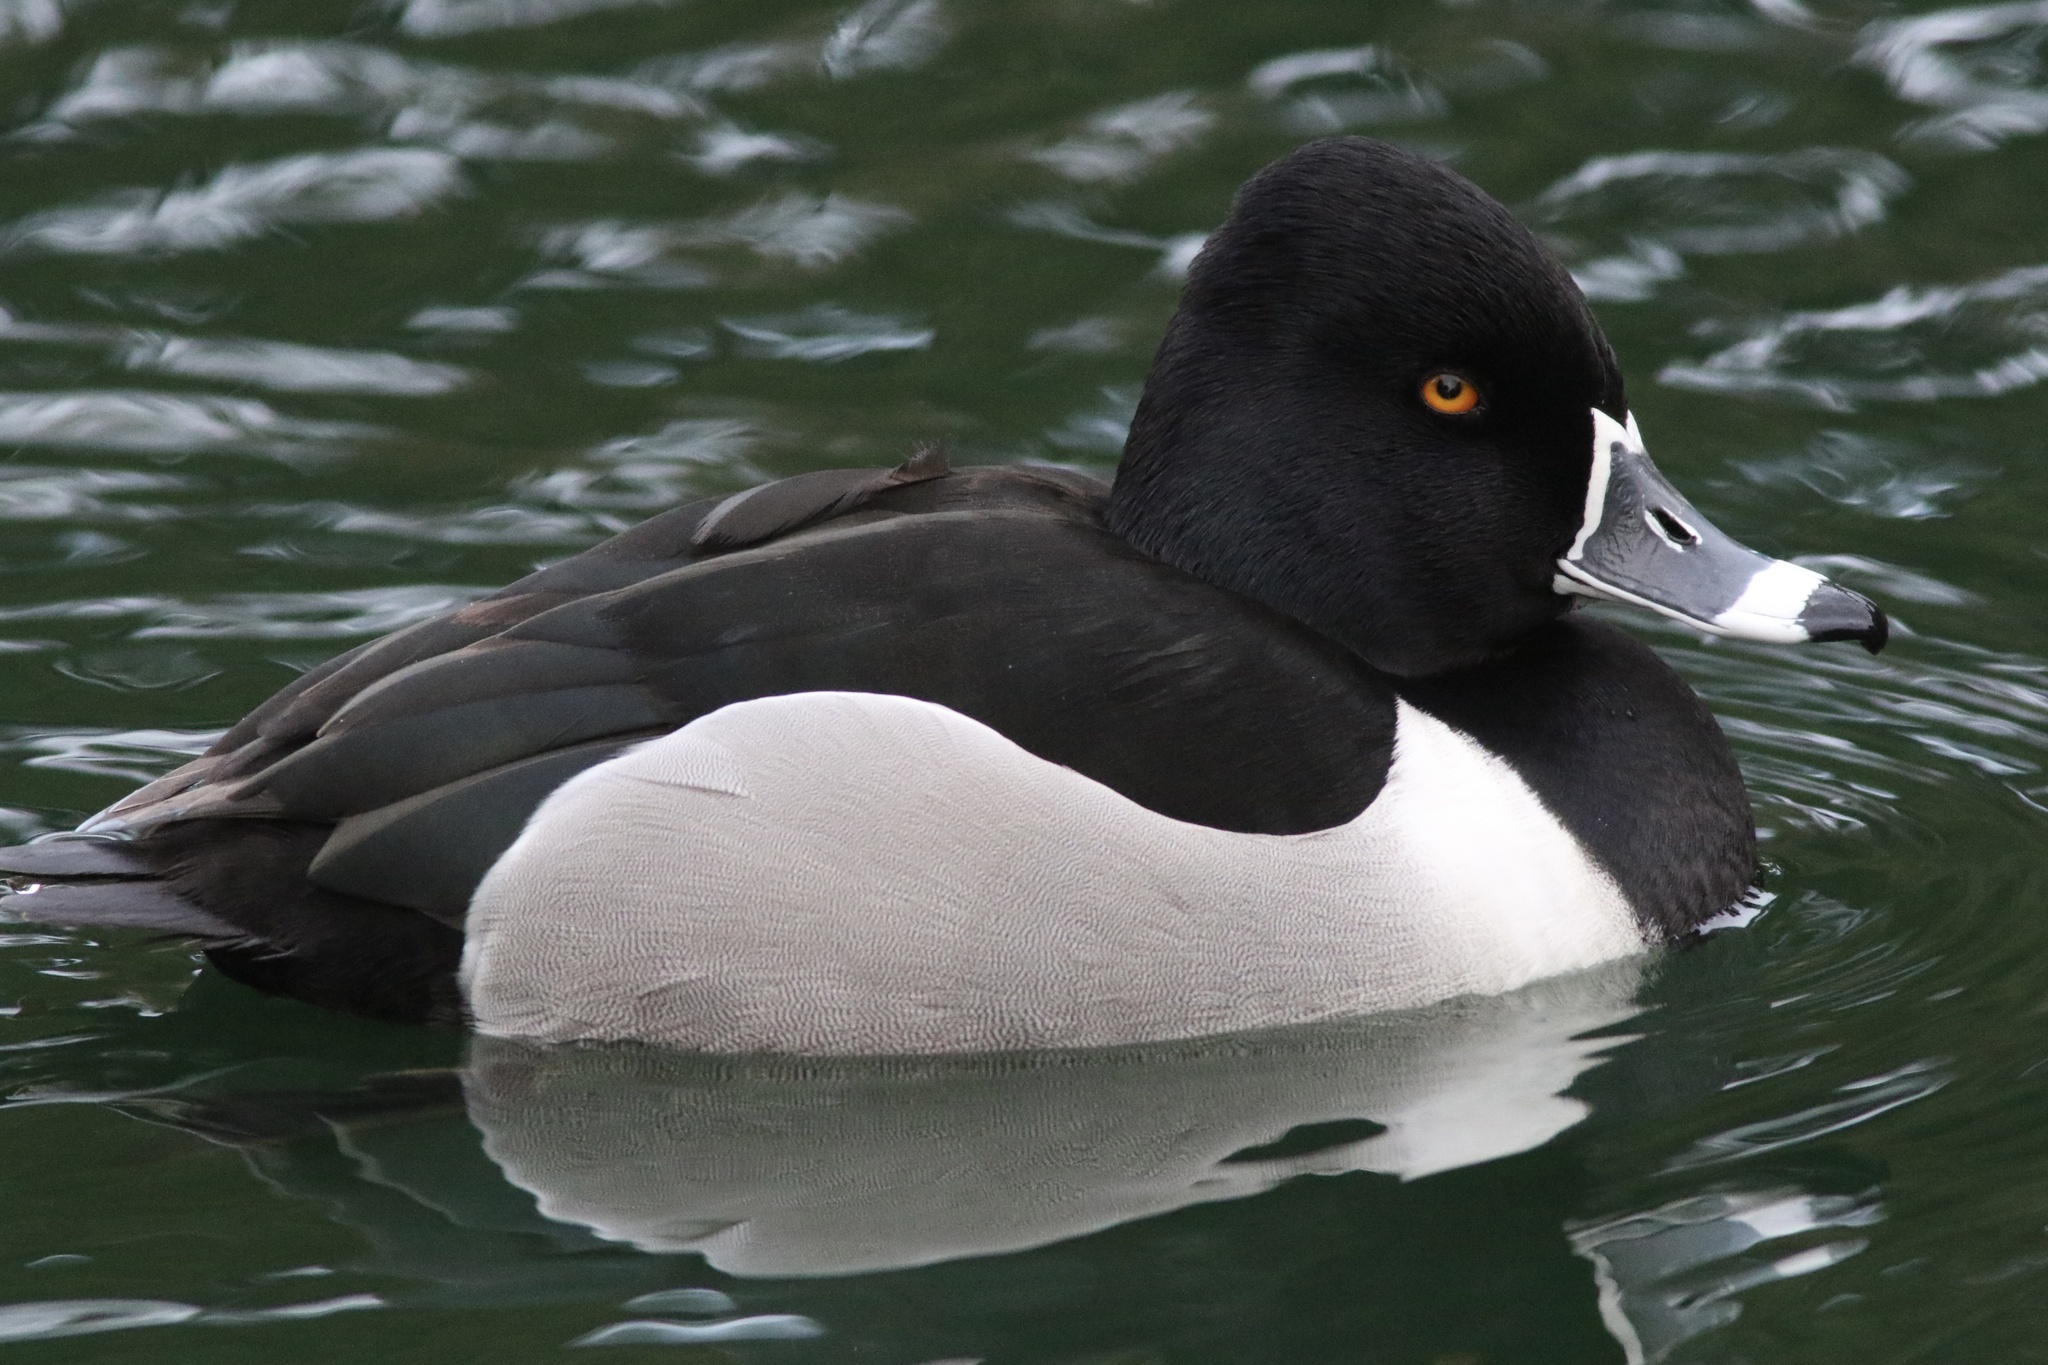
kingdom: Animalia
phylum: Chordata
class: Aves
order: Anseriformes
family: Anatidae
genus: Aythya
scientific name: Aythya collaris
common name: Ring-necked duck
